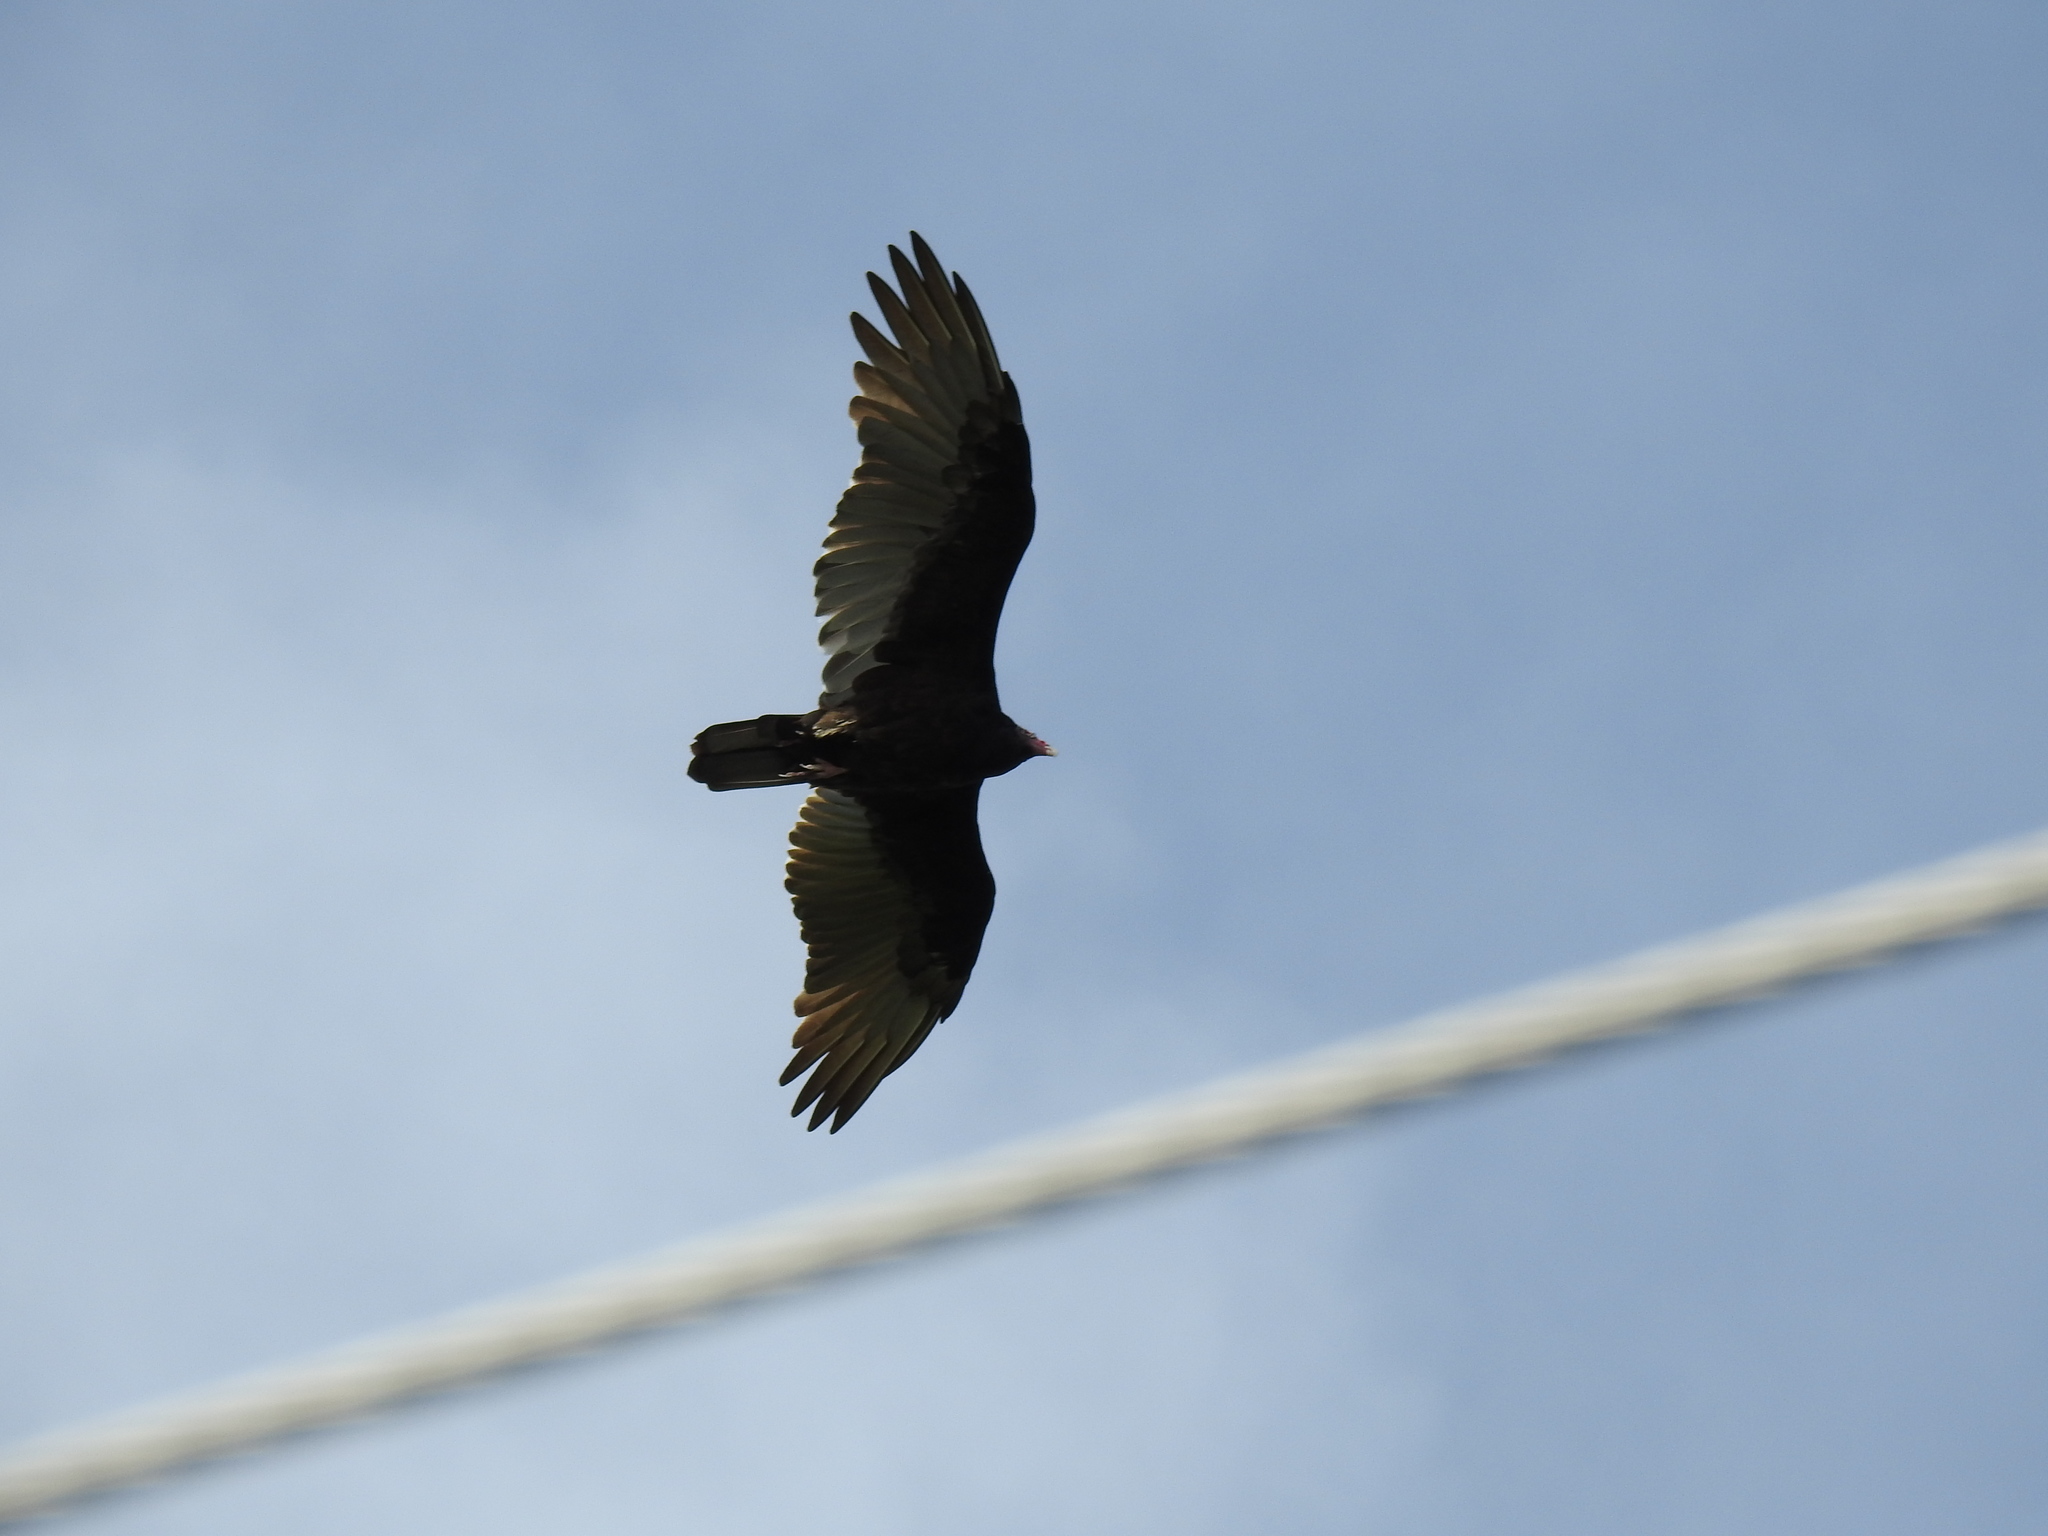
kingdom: Animalia
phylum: Chordata
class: Aves
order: Accipitriformes
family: Cathartidae
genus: Cathartes
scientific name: Cathartes aura
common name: Turkey vulture
